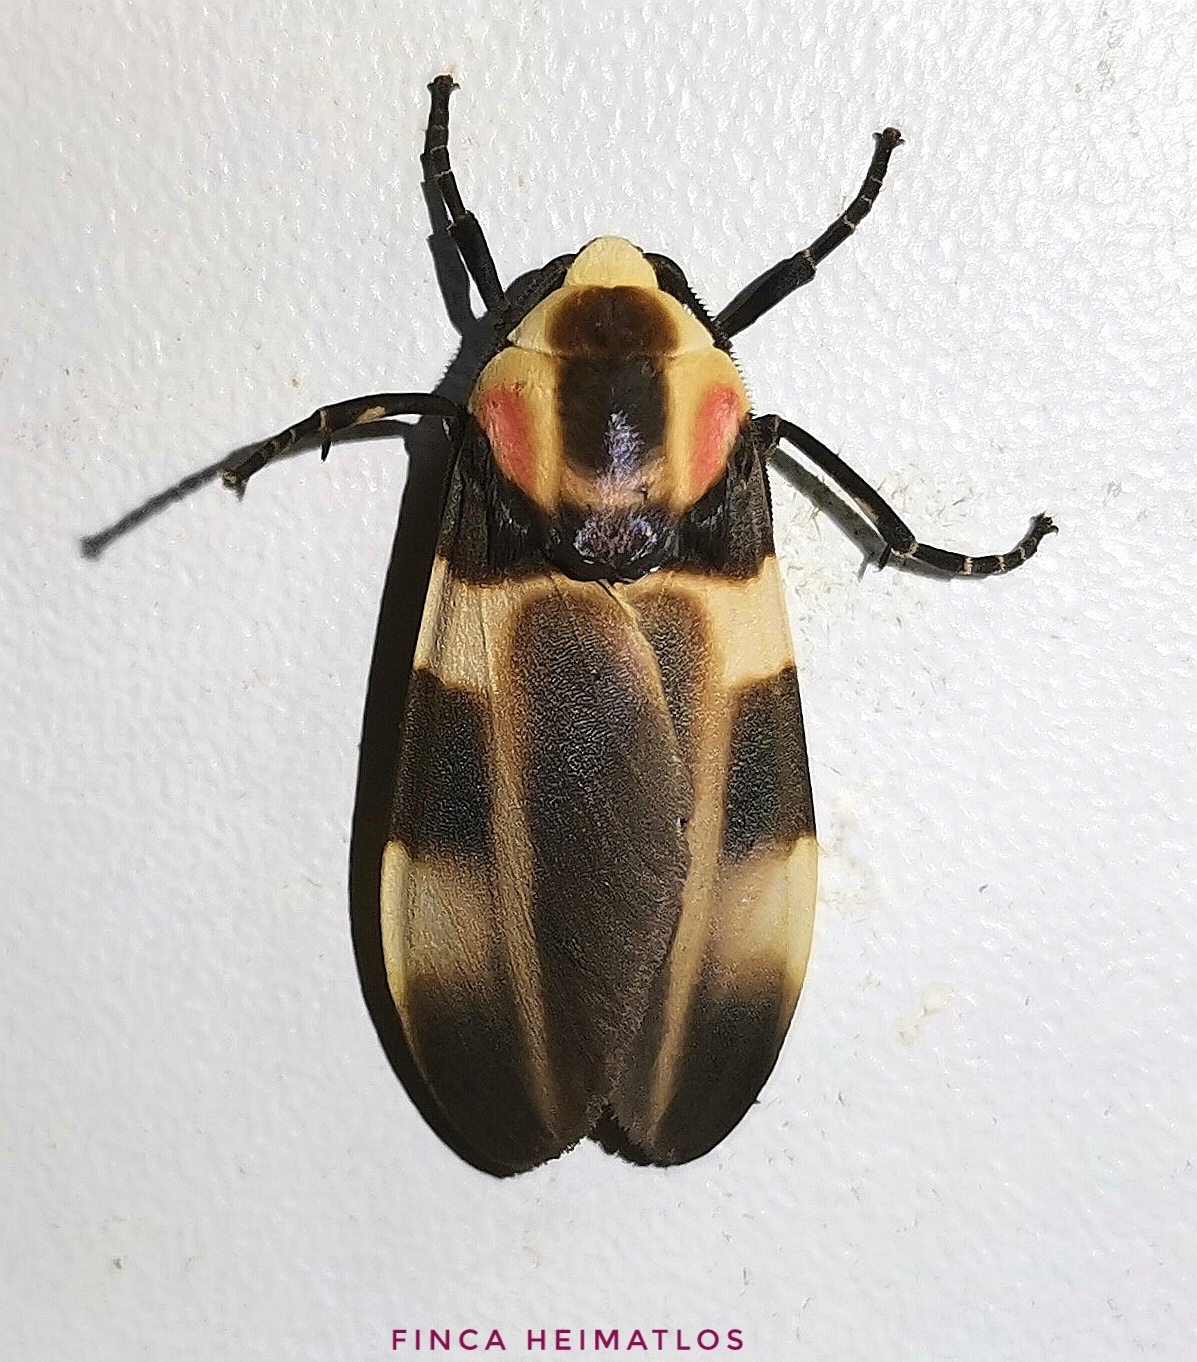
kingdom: Animalia
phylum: Arthropoda
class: Insecta
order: Lepidoptera
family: Erebidae
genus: Cratoplastis
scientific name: Cratoplastis rectiradia
